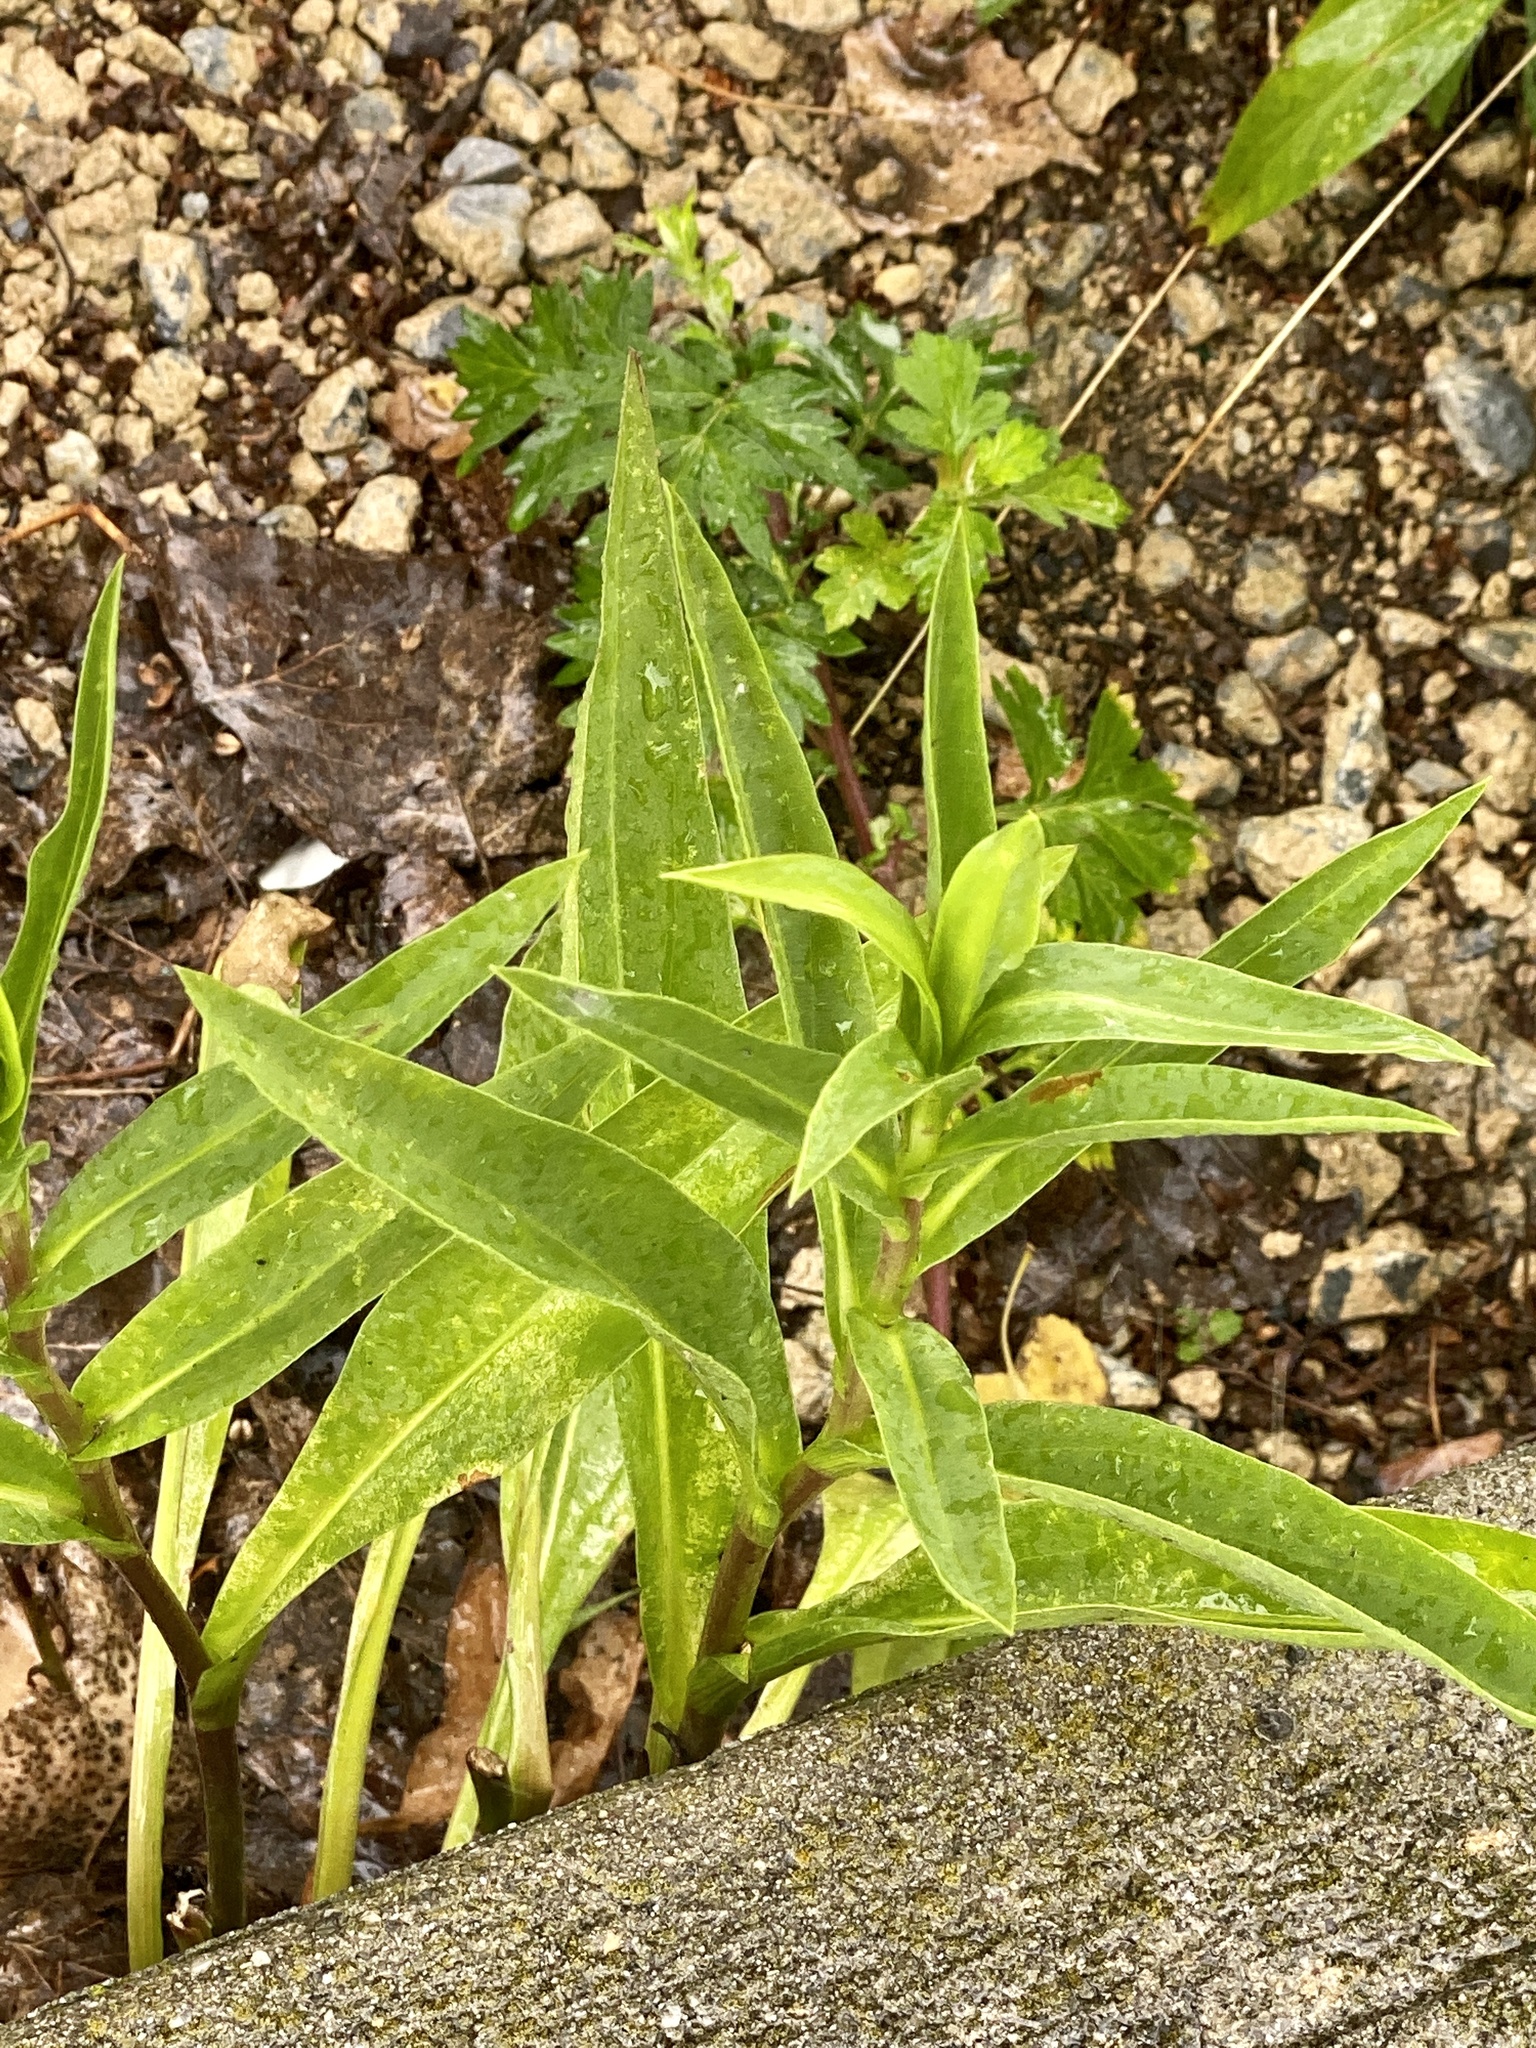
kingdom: Plantae
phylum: Tracheophyta
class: Magnoliopsida
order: Asterales
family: Asteraceae
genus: Solidago
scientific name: Solidago sempervirens
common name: Salt-marsh goldenrod
